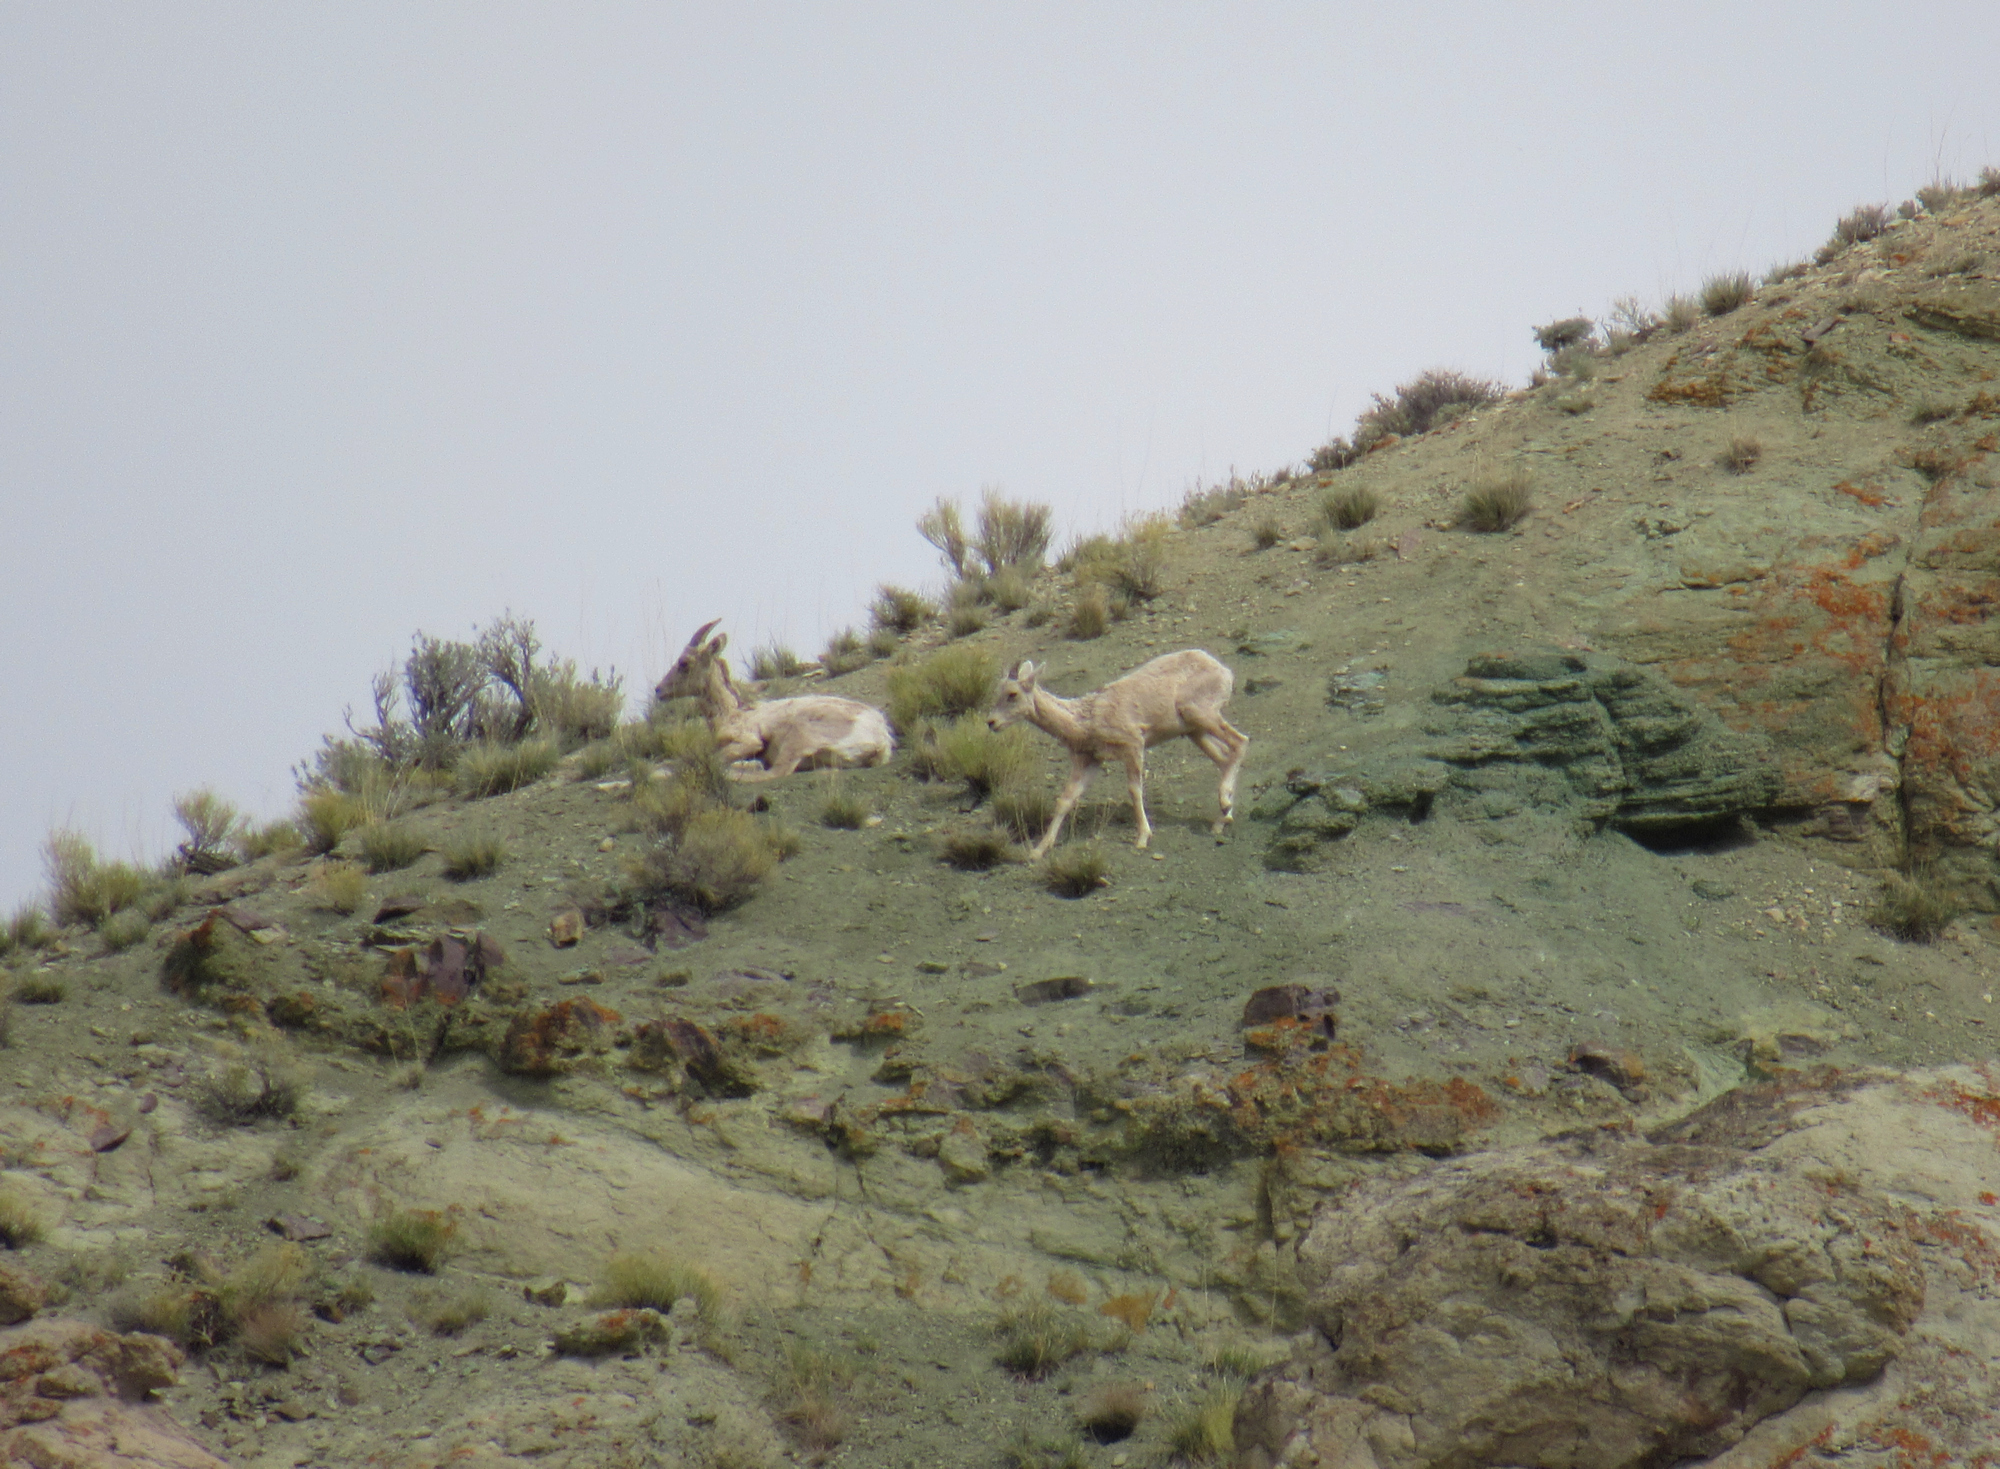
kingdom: Animalia
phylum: Chordata
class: Mammalia
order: Artiodactyla
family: Bovidae
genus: Ovis
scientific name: Ovis canadensis
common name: Bighorn sheep
